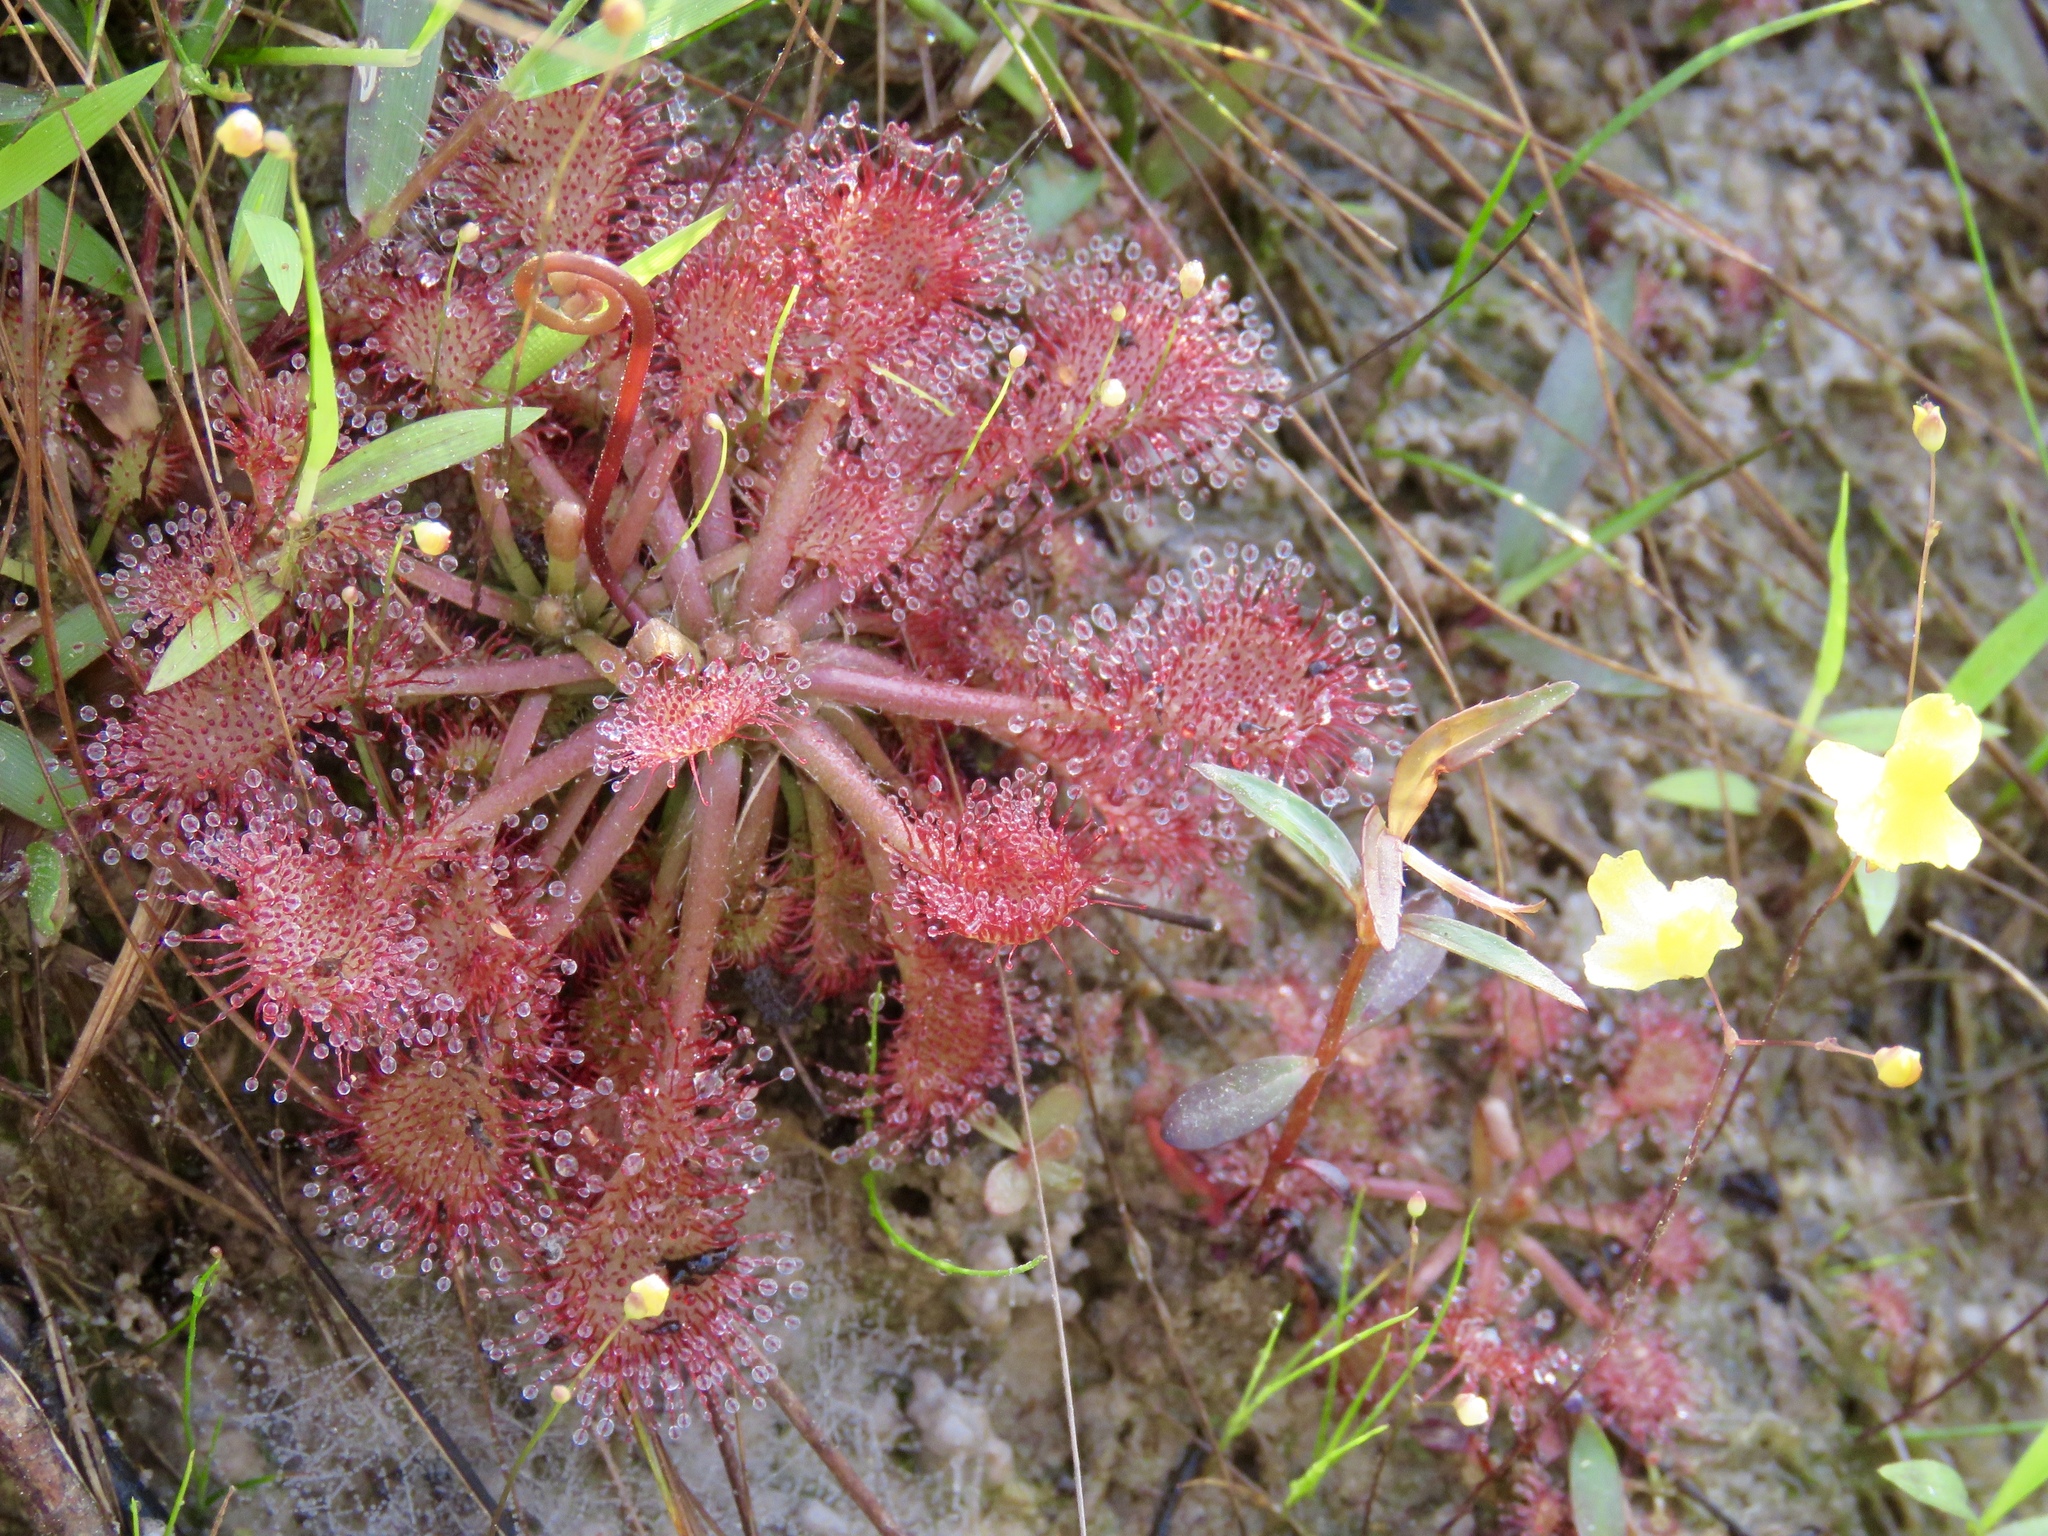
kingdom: Plantae
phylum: Tracheophyta
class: Magnoliopsida
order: Caryophyllales
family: Droseraceae
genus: Drosera
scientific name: Drosera capillaris
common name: Pink sundew
